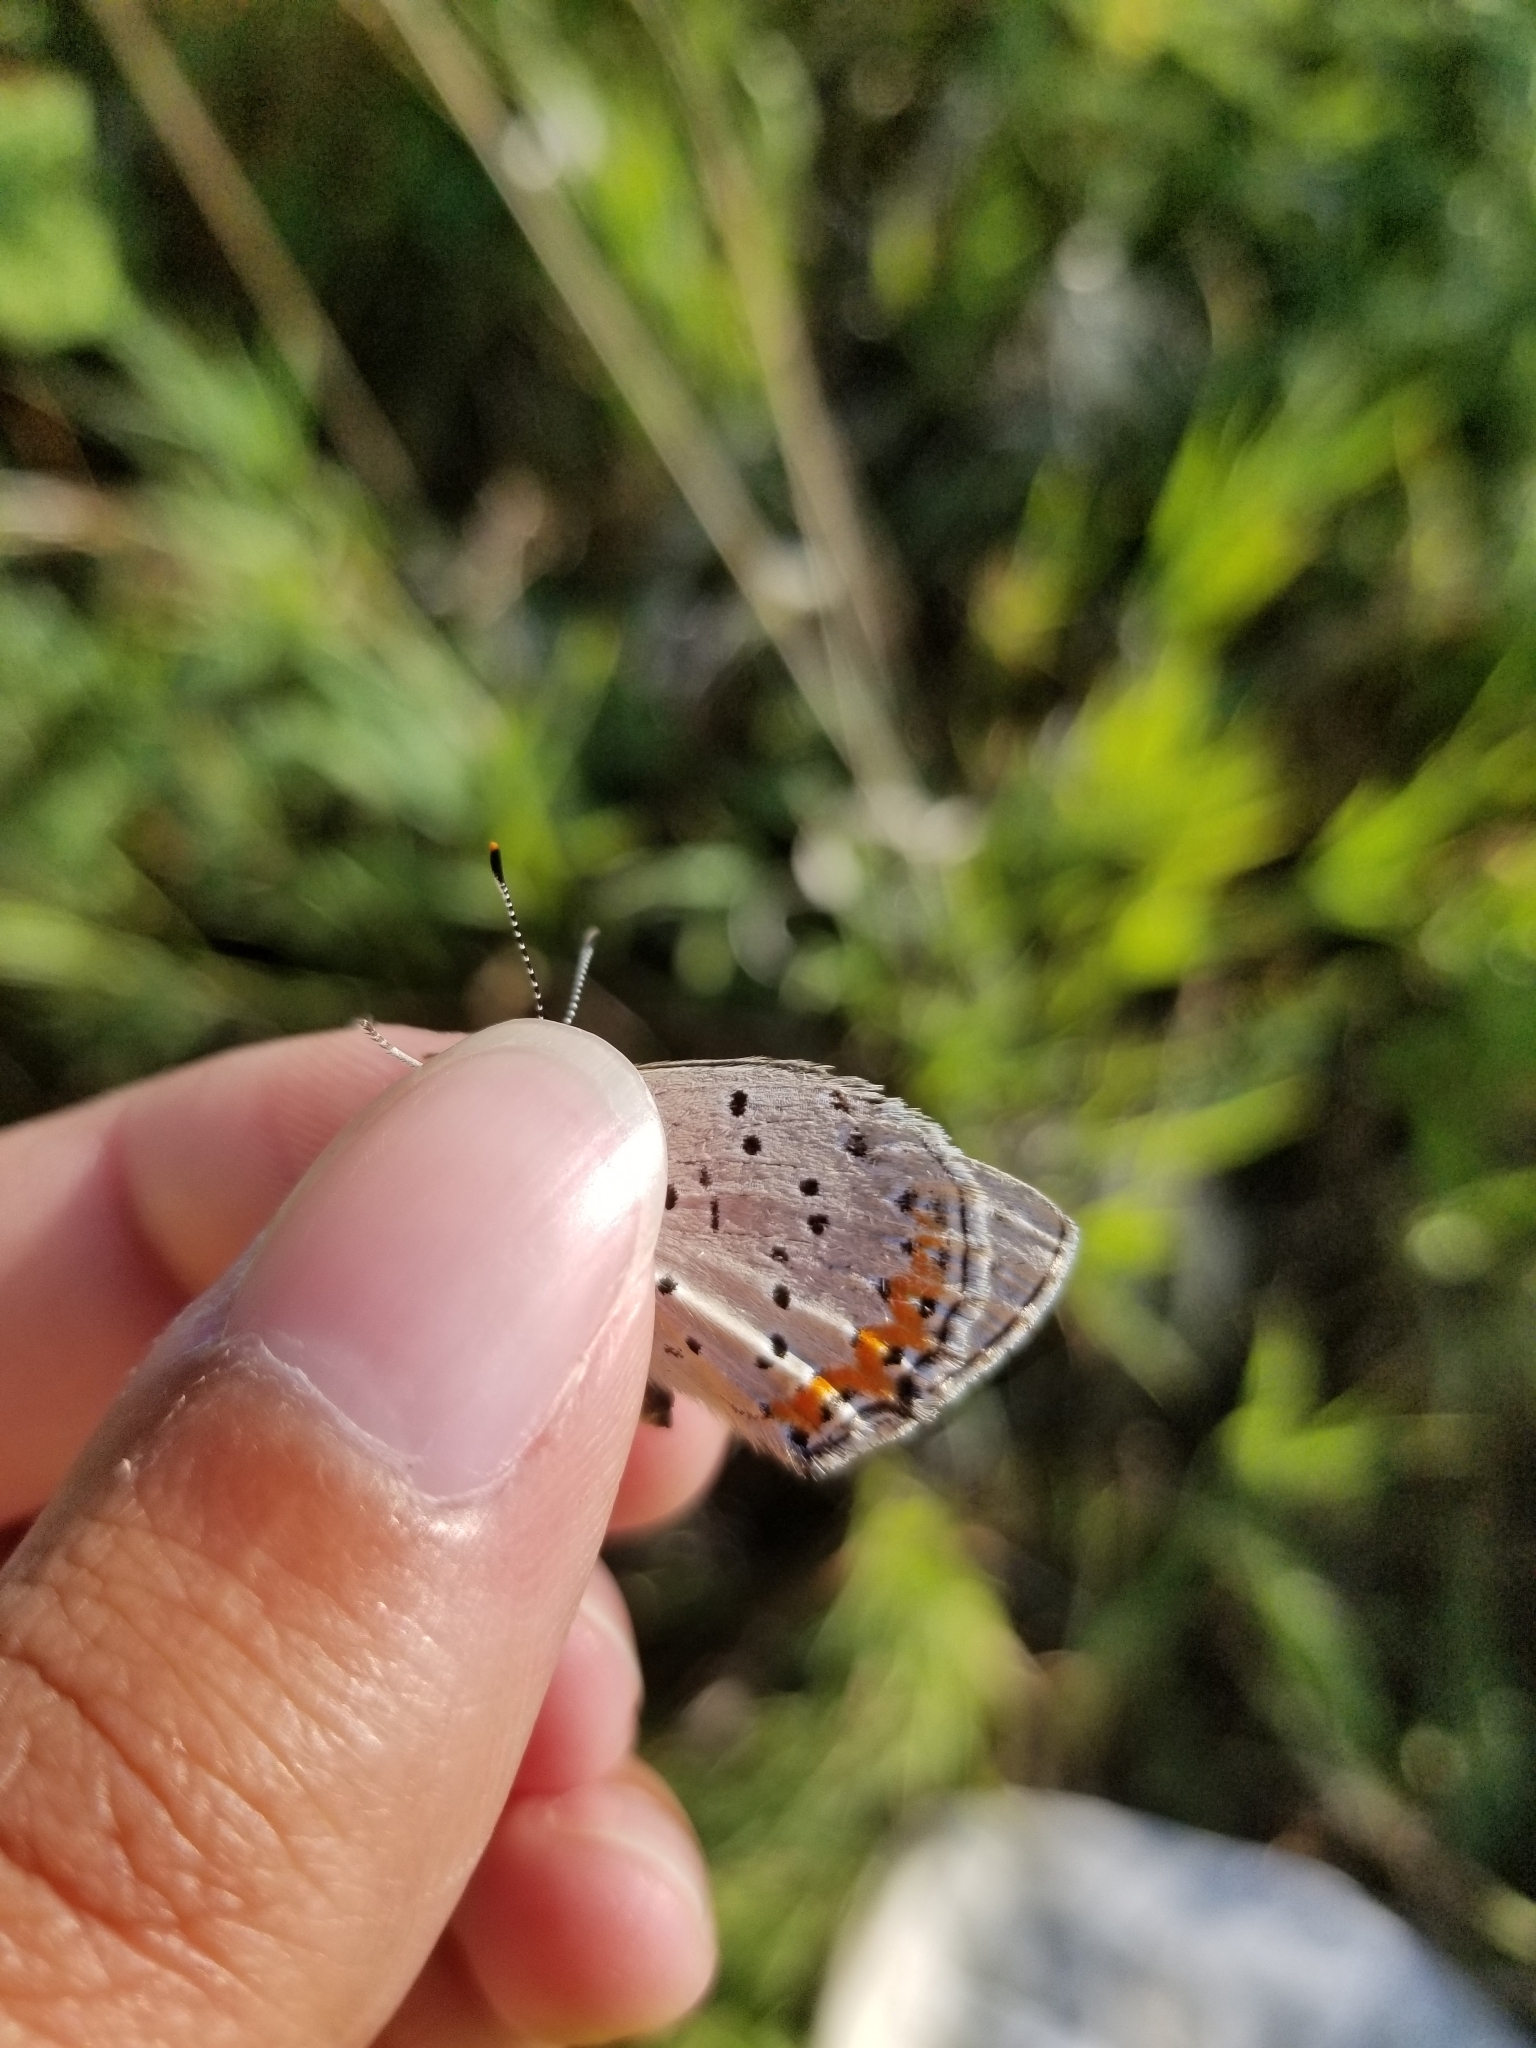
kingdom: Animalia
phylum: Arthropoda
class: Insecta
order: Lepidoptera
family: Lycaenidae
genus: Tharsalea
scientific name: Tharsalea dione
